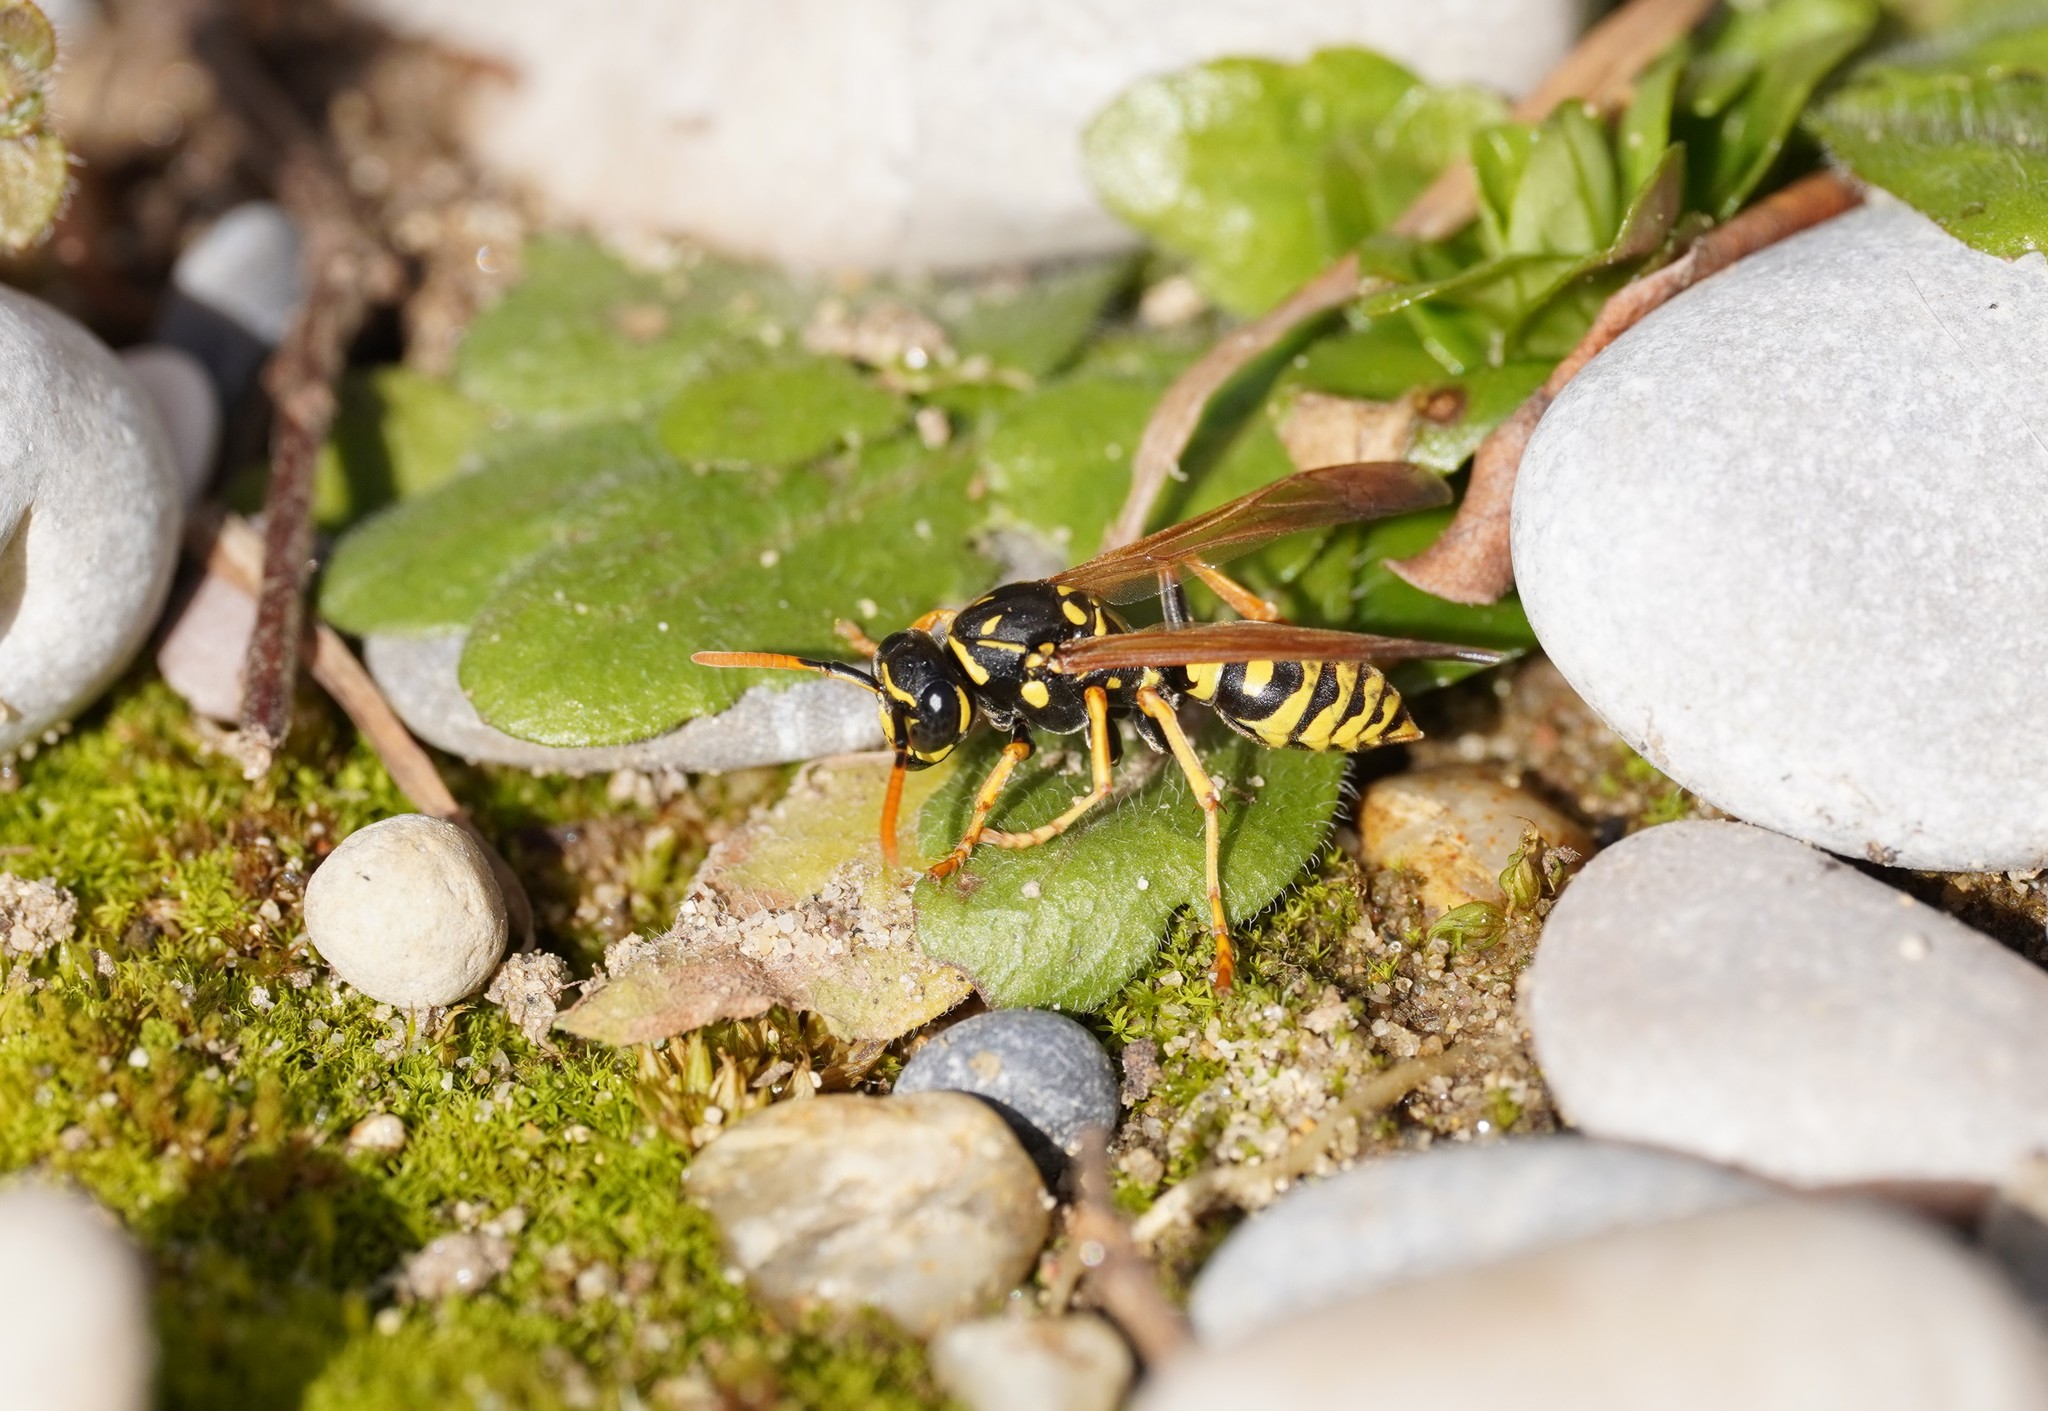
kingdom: Animalia
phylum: Arthropoda
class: Insecta
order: Hymenoptera
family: Eumenidae
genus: Polistes
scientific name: Polistes dominula
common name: Paper wasp
